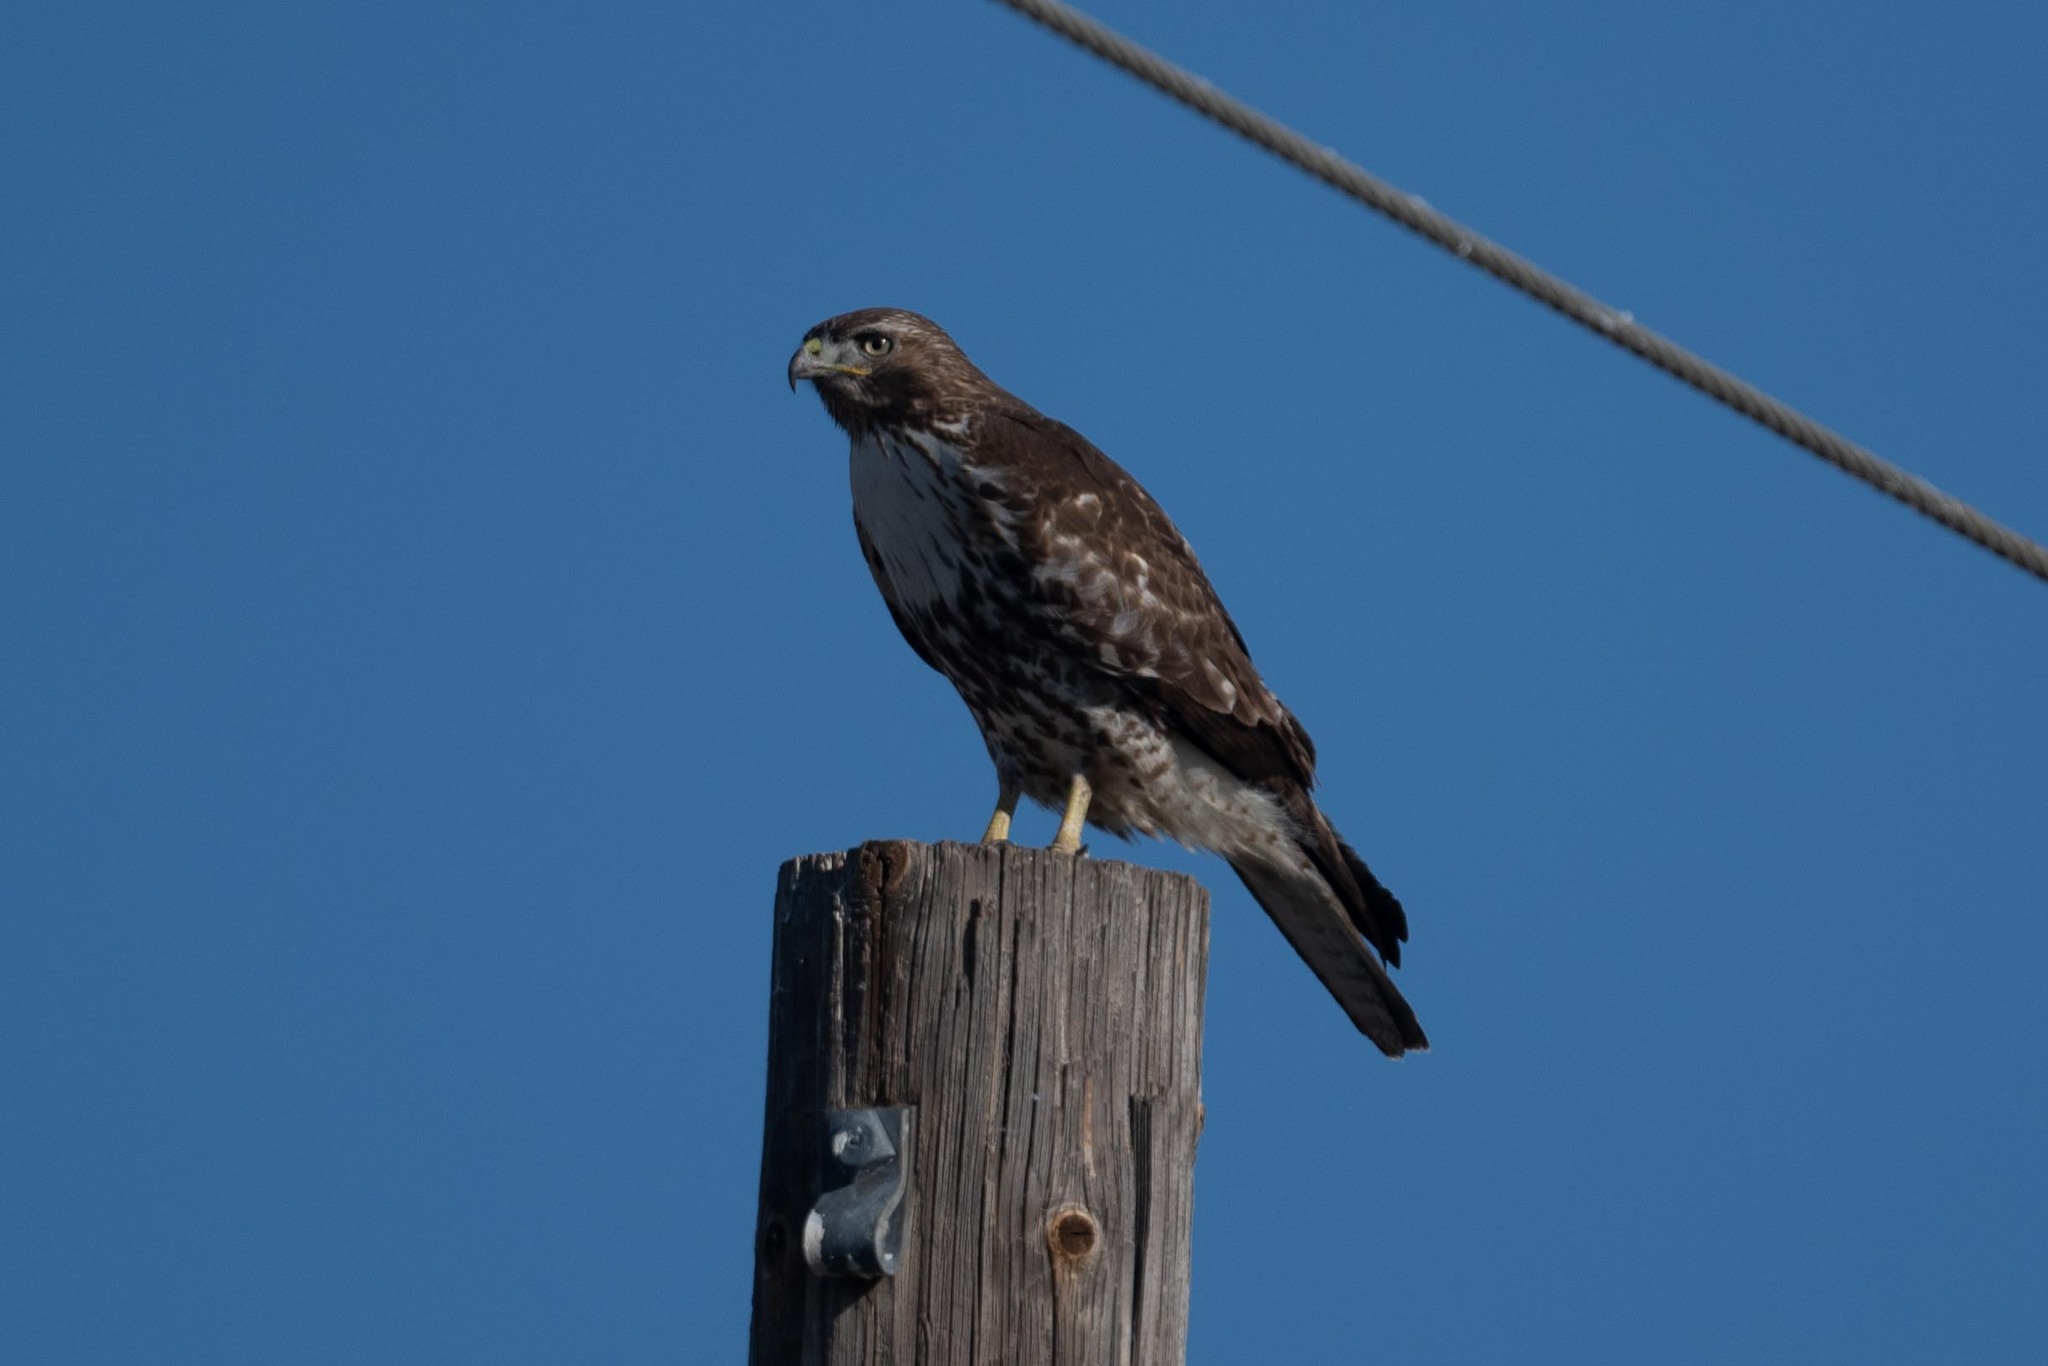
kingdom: Animalia
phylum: Chordata
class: Aves
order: Accipitriformes
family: Accipitridae
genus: Buteo
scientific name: Buteo jamaicensis
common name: Red-tailed hawk
